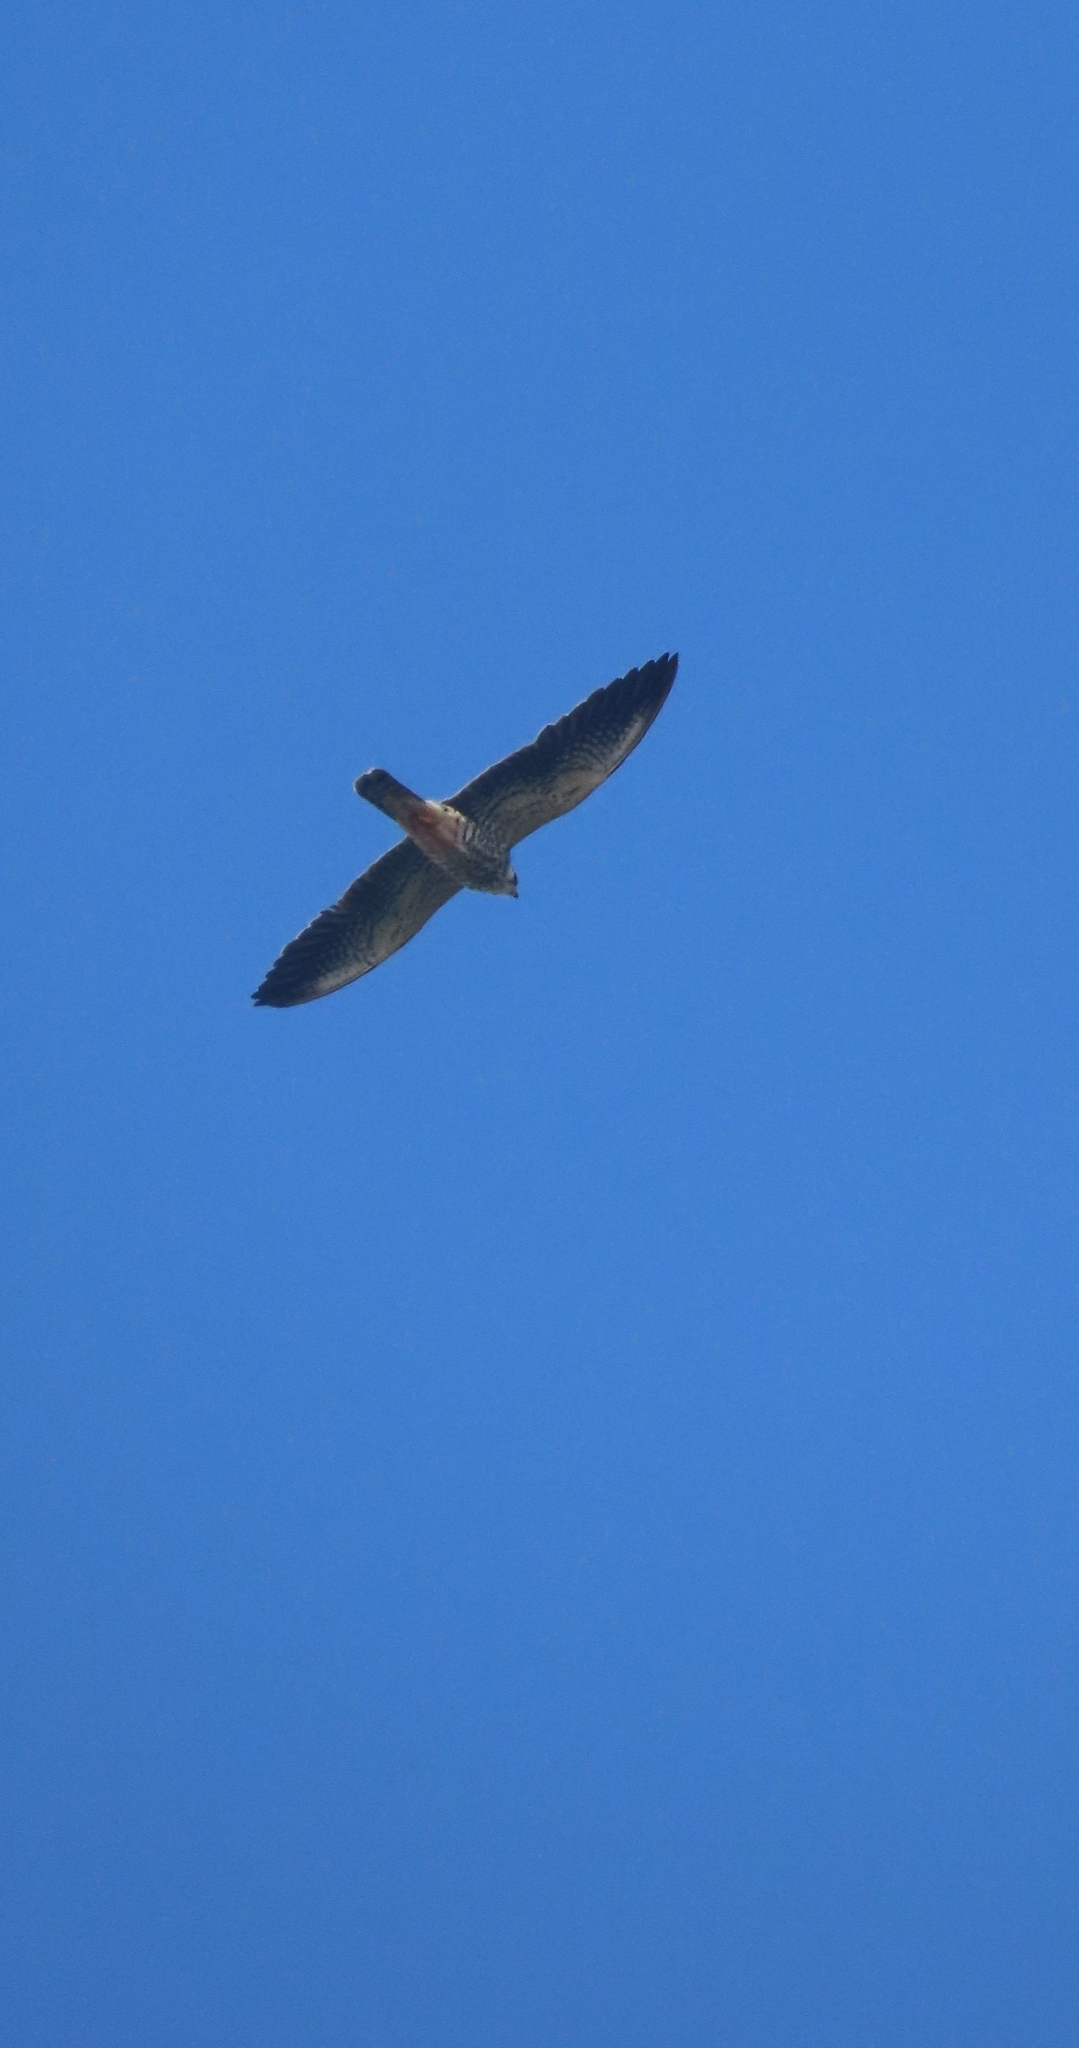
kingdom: Animalia
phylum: Chordata
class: Aves
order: Falconiformes
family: Falconidae
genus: Falco
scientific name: Falco amurensis
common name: Amur falcon
